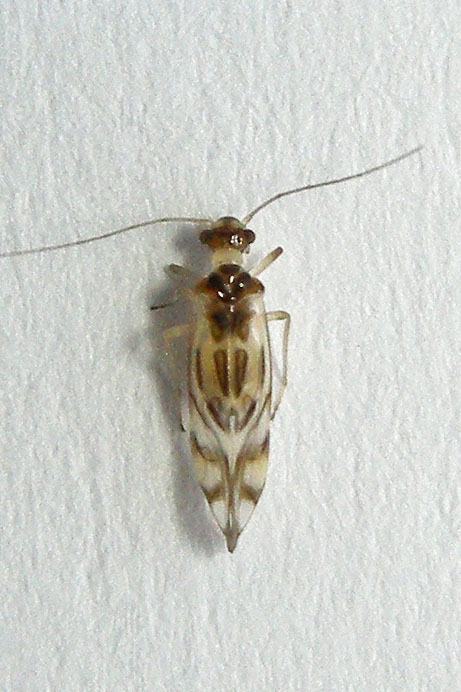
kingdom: Animalia
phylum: Arthropoda
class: Insecta
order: Psocodea
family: Stenopsocidae
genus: Graphopsocus
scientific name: Graphopsocus cruciatus
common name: Lizard bark louse
